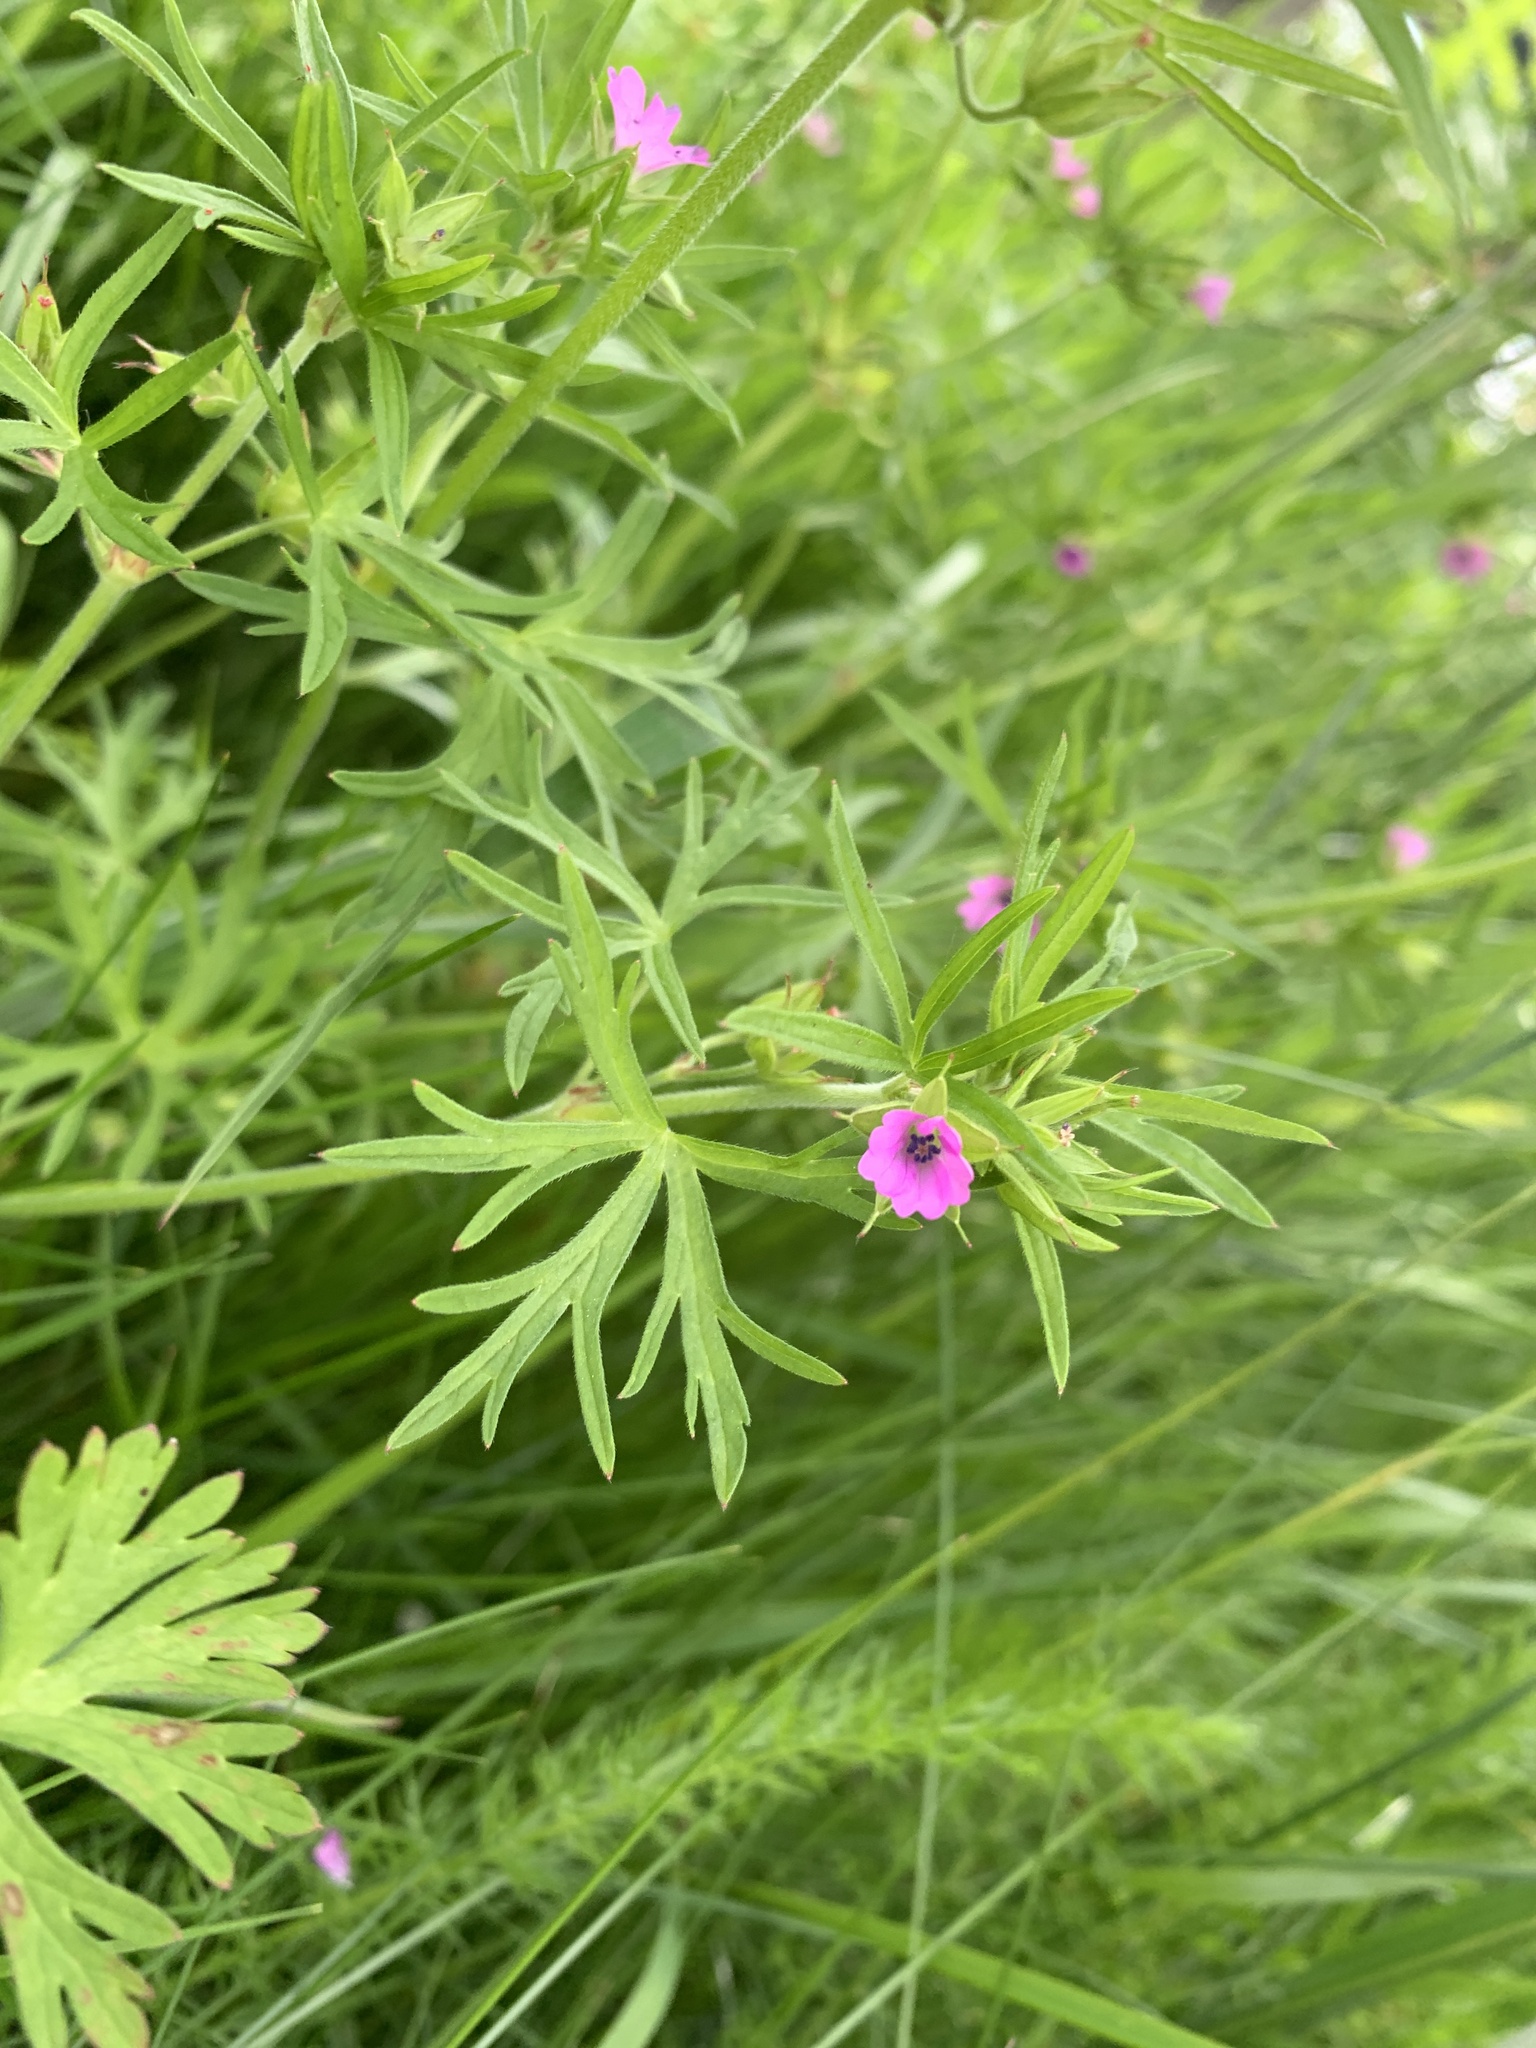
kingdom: Plantae
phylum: Tracheophyta
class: Magnoliopsida
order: Geraniales
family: Geraniaceae
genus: Geranium
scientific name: Geranium dissectum
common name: Cut-leaved crane's-bill
